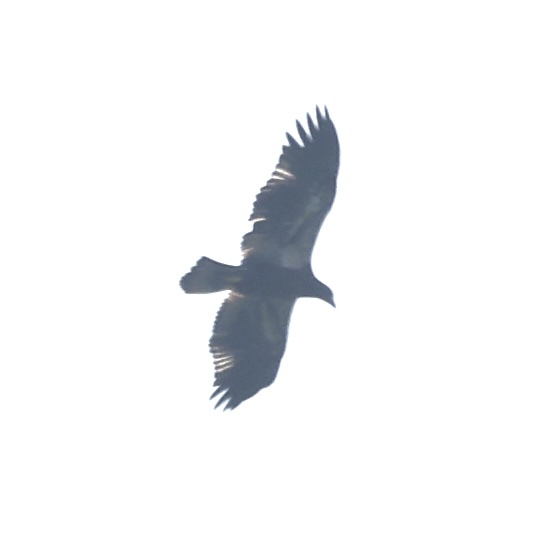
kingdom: Animalia
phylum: Chordata
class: Aves
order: Accipitriformes
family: Accipitridae
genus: Haliaeetus
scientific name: Haliaeetus leucocephalus
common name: Bald eagle
